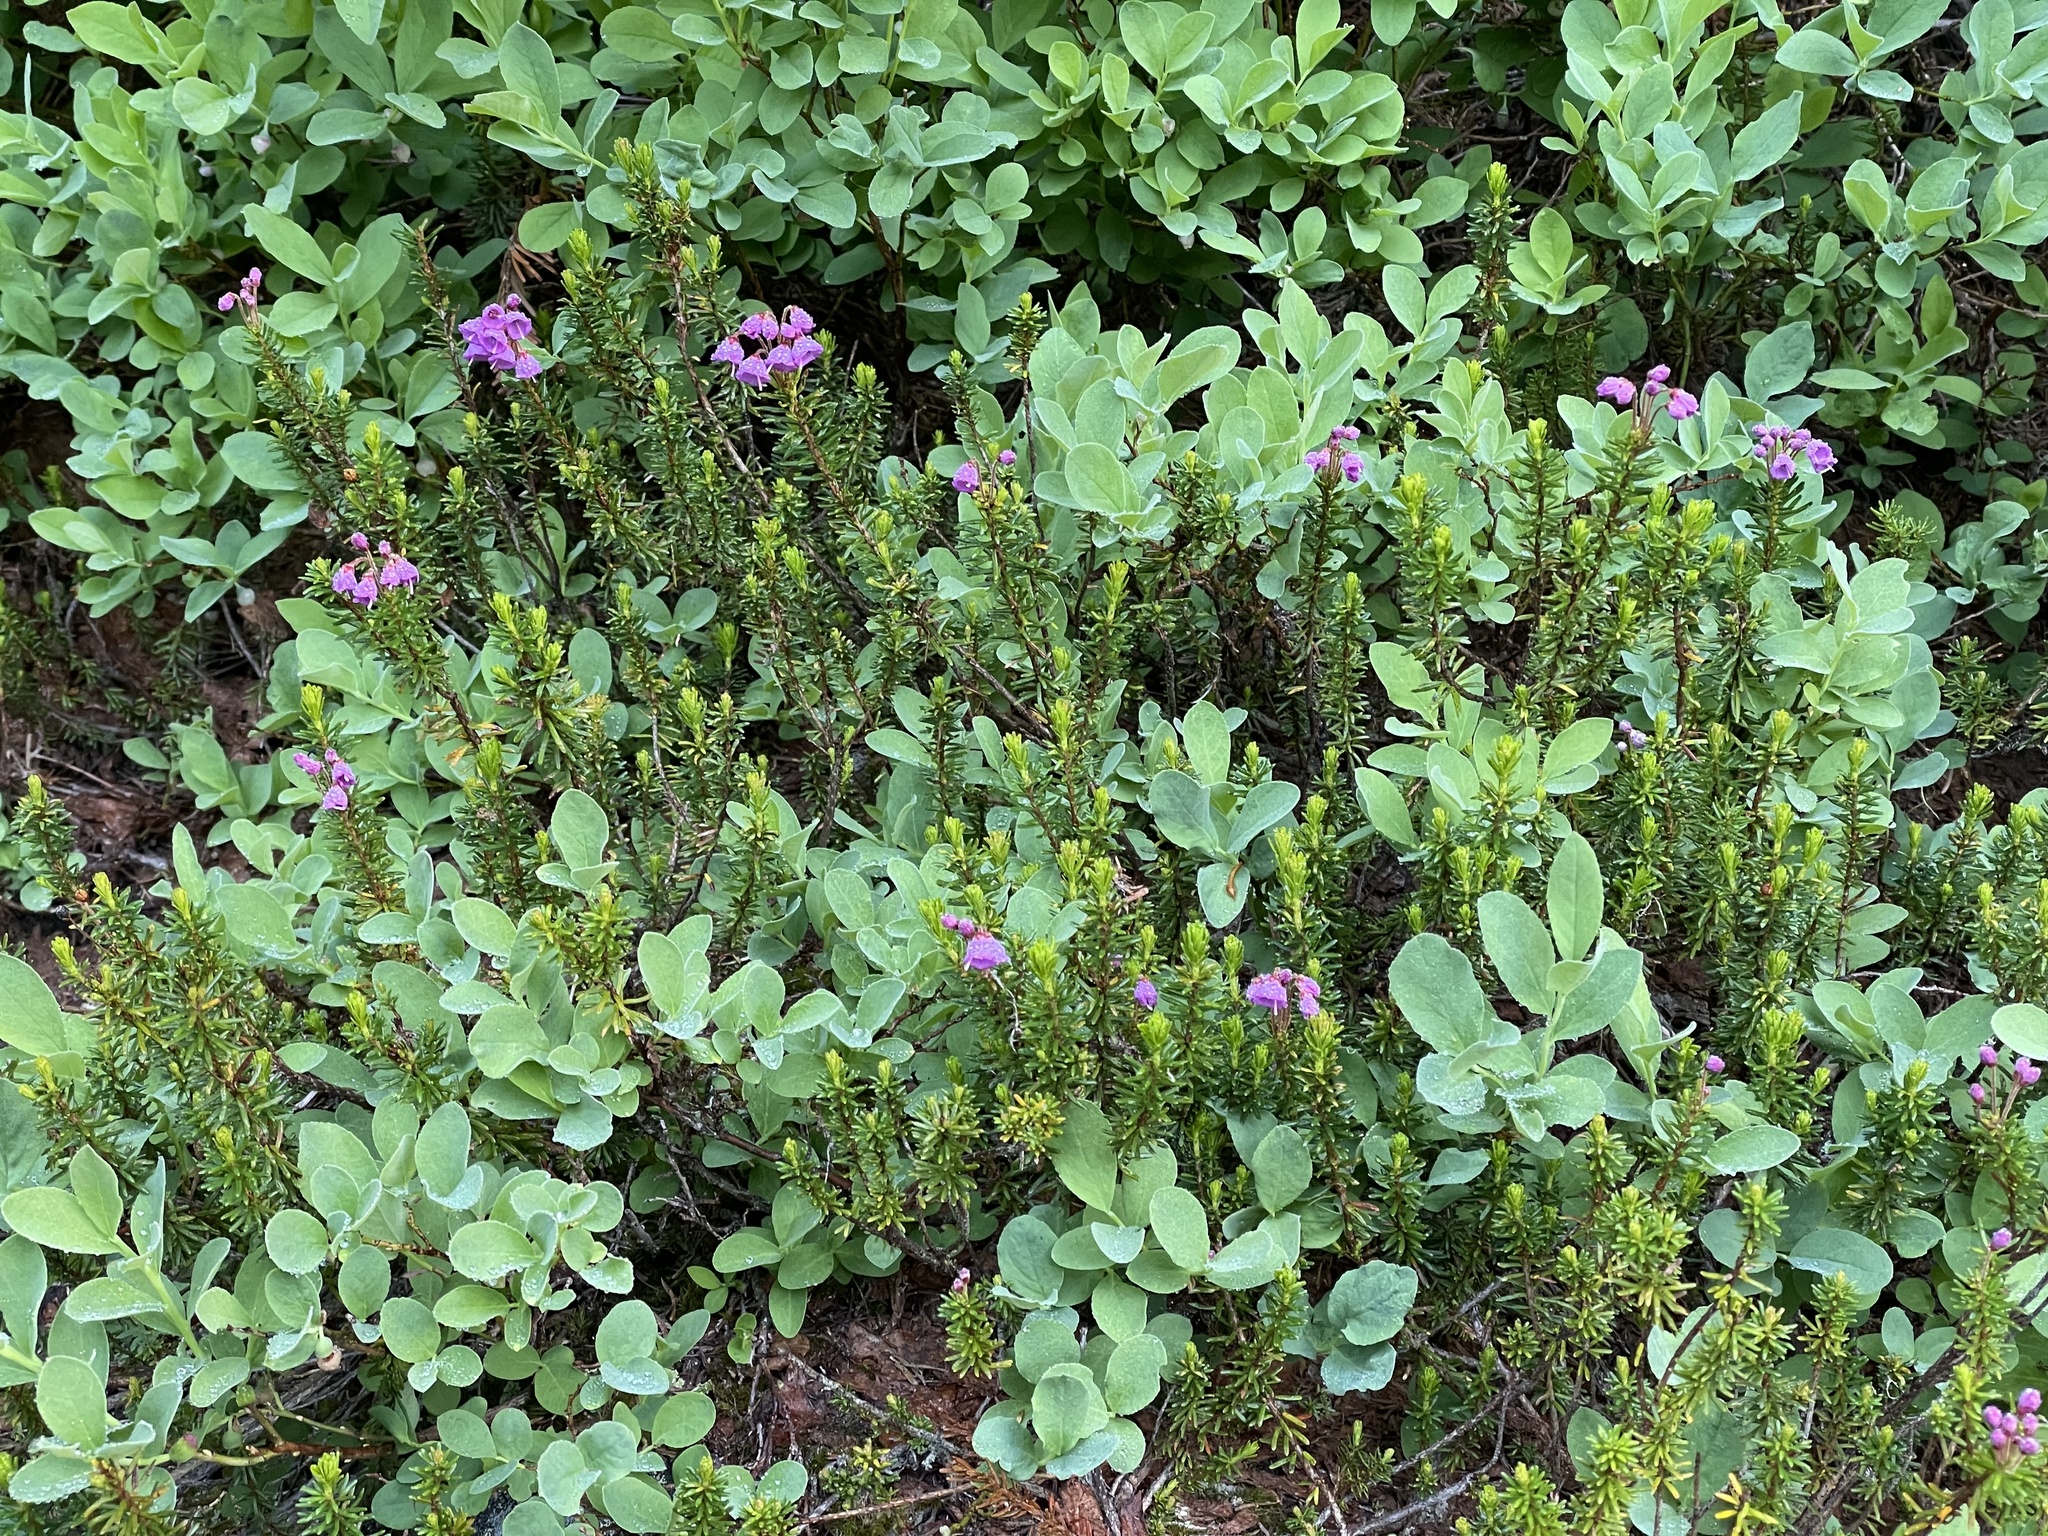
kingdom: Plantae
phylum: Tracheophyta
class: Magnoliopsida
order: Ericales
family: Ericaceae
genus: Phyllodoce
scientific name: Phyllodoce empetriformis
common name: Pink mountain heather
